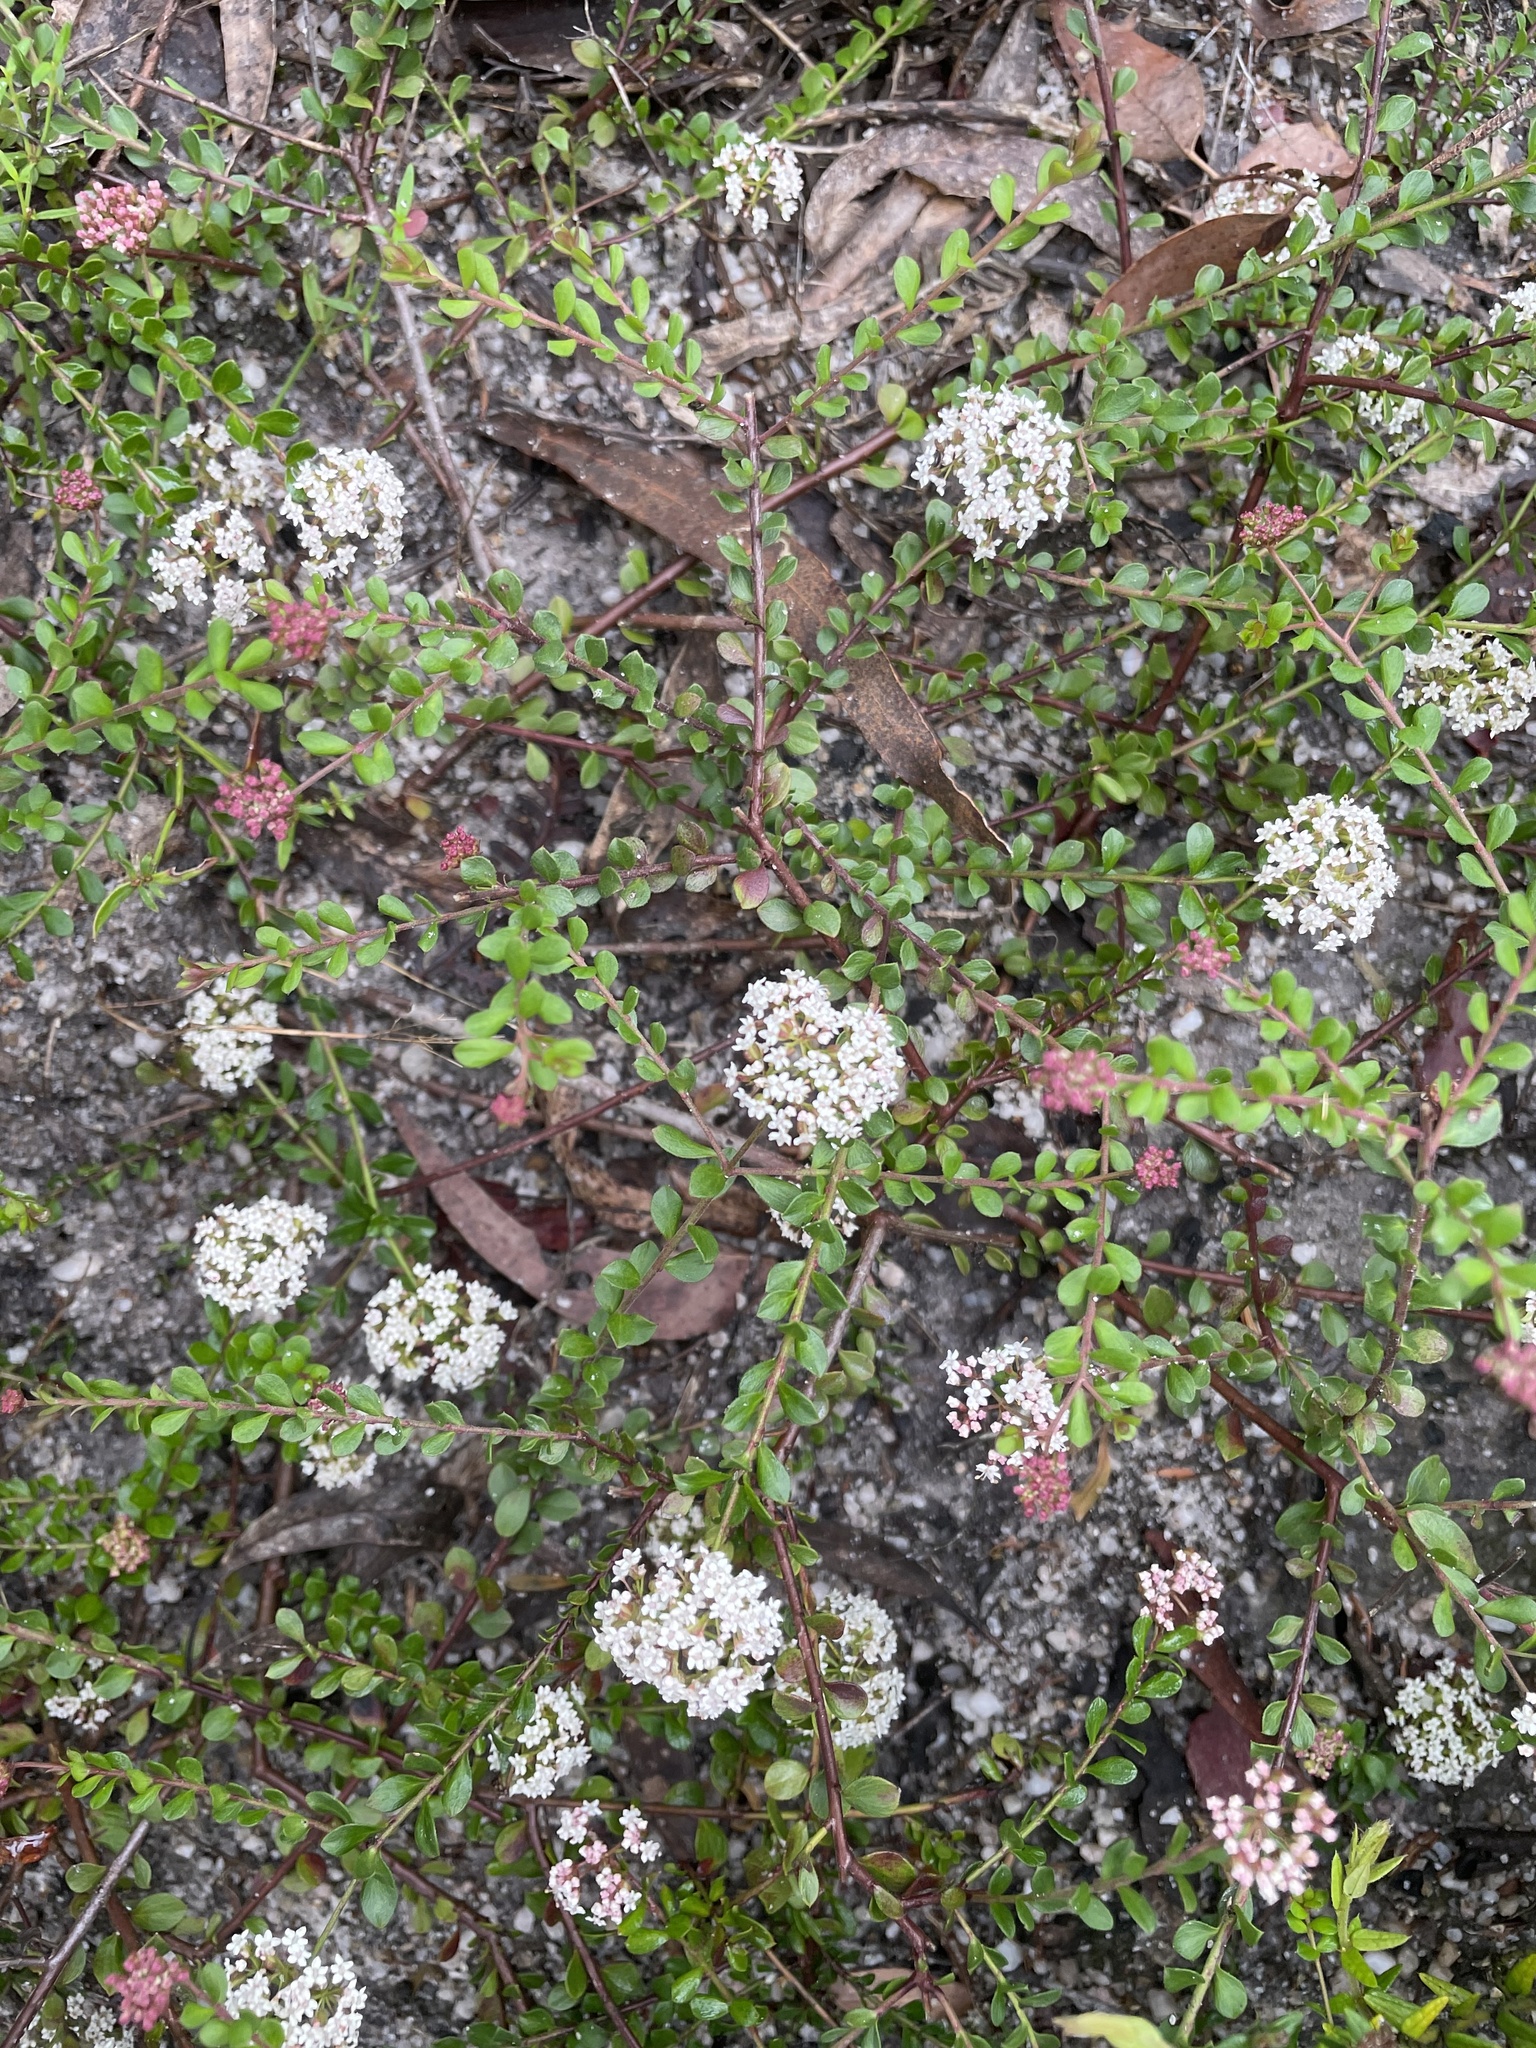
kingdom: Plantae
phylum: Tracheophyta
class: Magnoliopsida
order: Apiales
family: Apiaceae
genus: Platysace
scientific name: Platysace lanceolata
